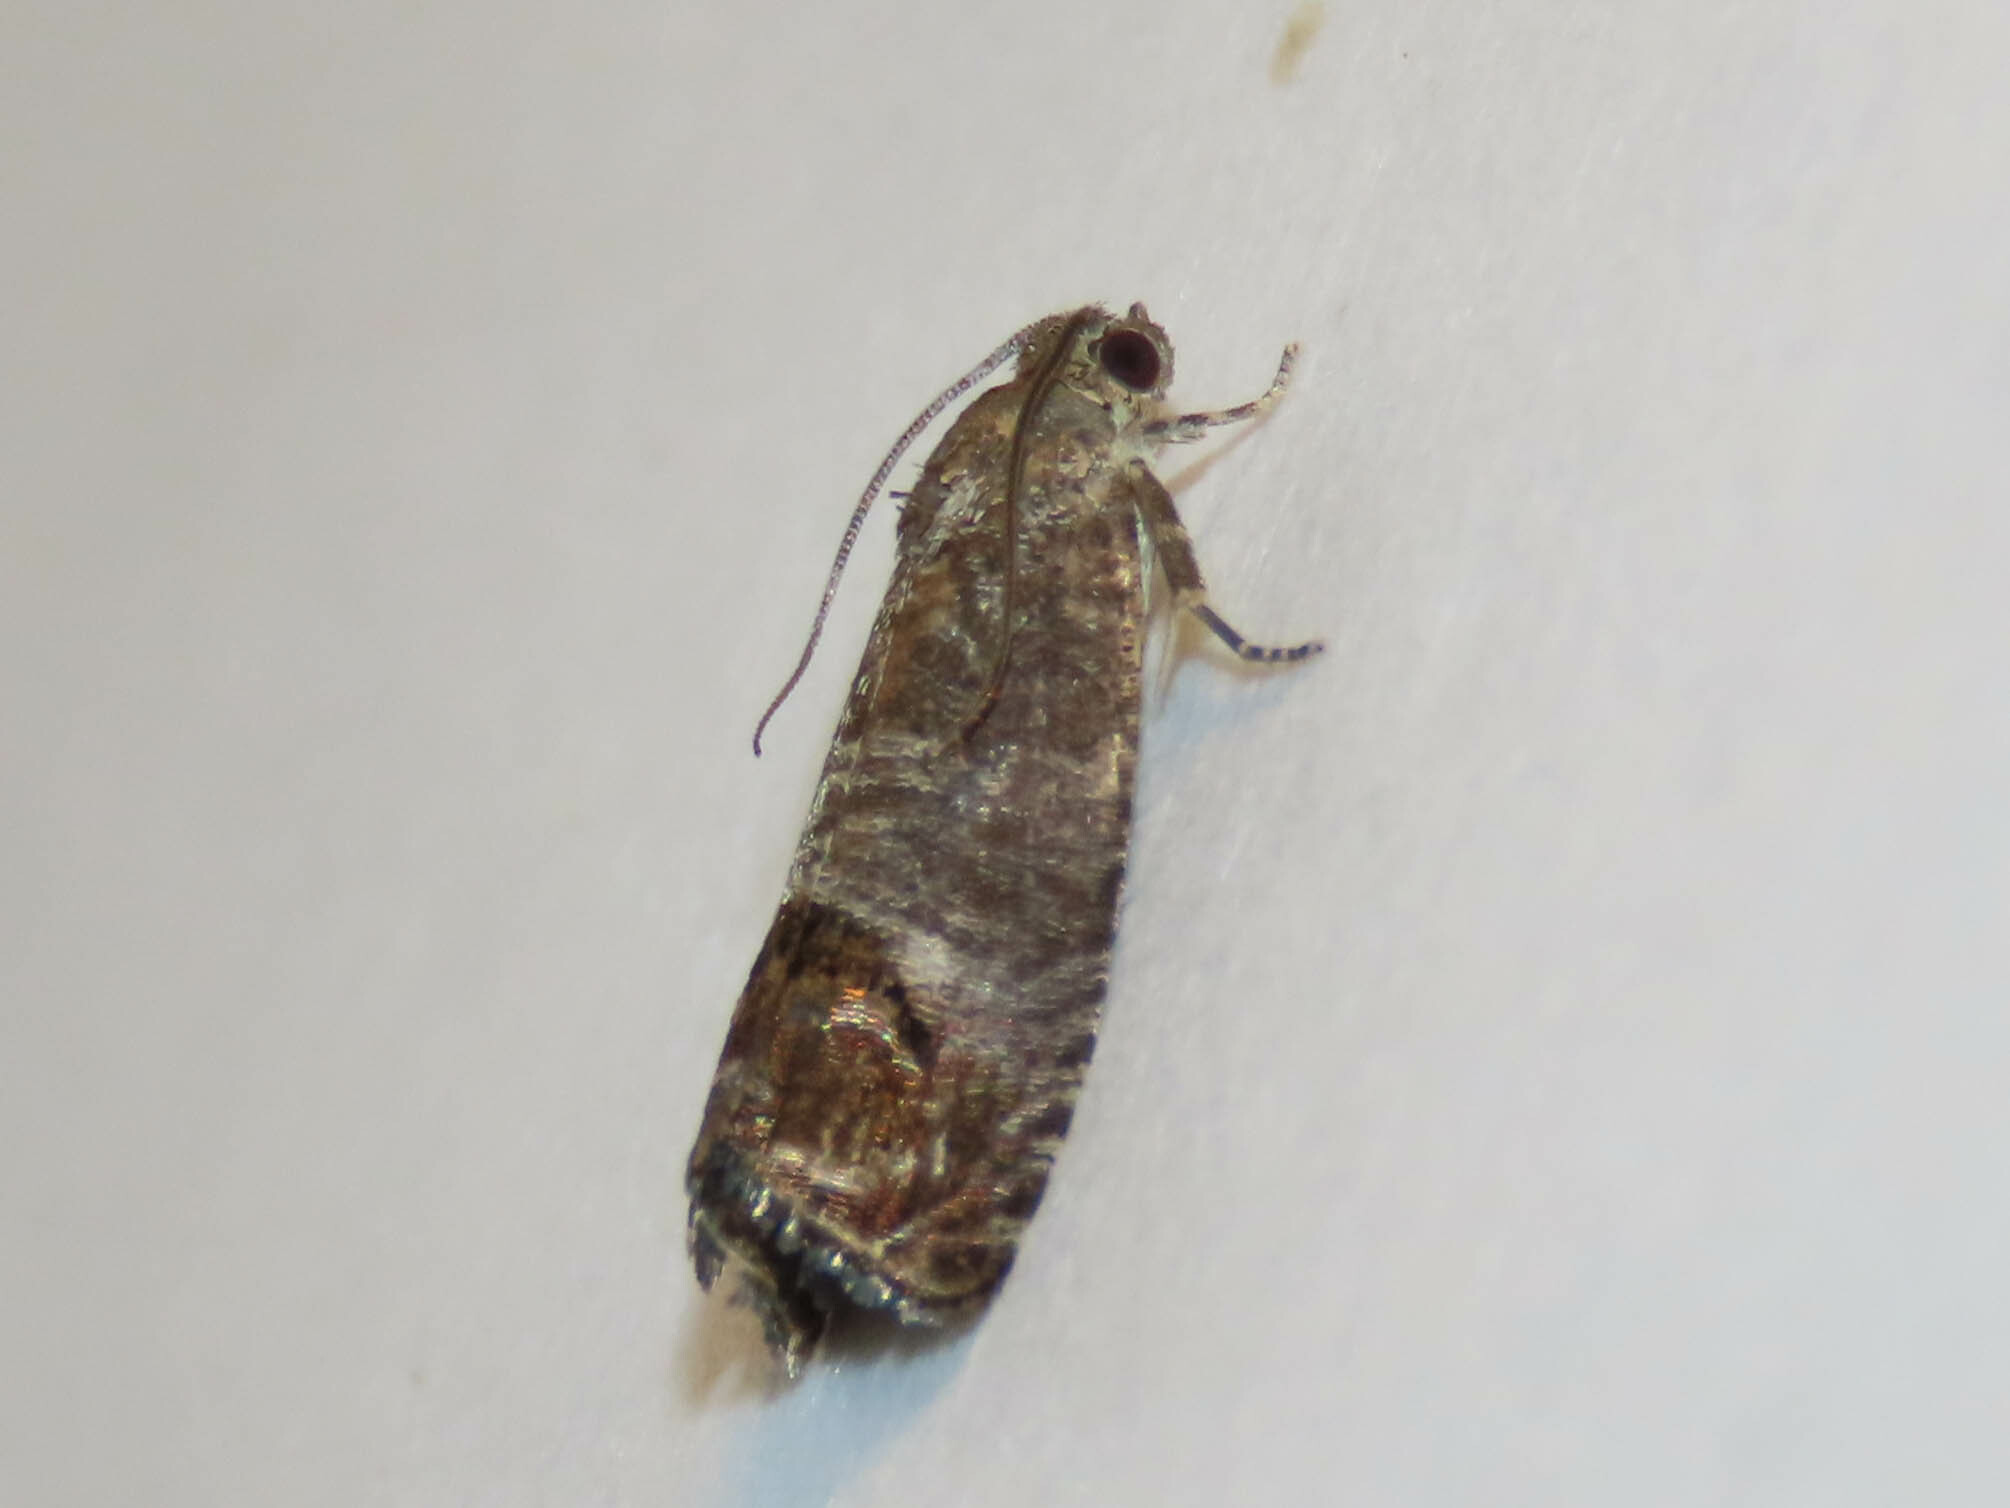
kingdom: Animalia
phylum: Arthropoda
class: Insecta
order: Lepidoptera
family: Tortricidae
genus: Cydia
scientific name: Cydia pomonella
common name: Codling moth
